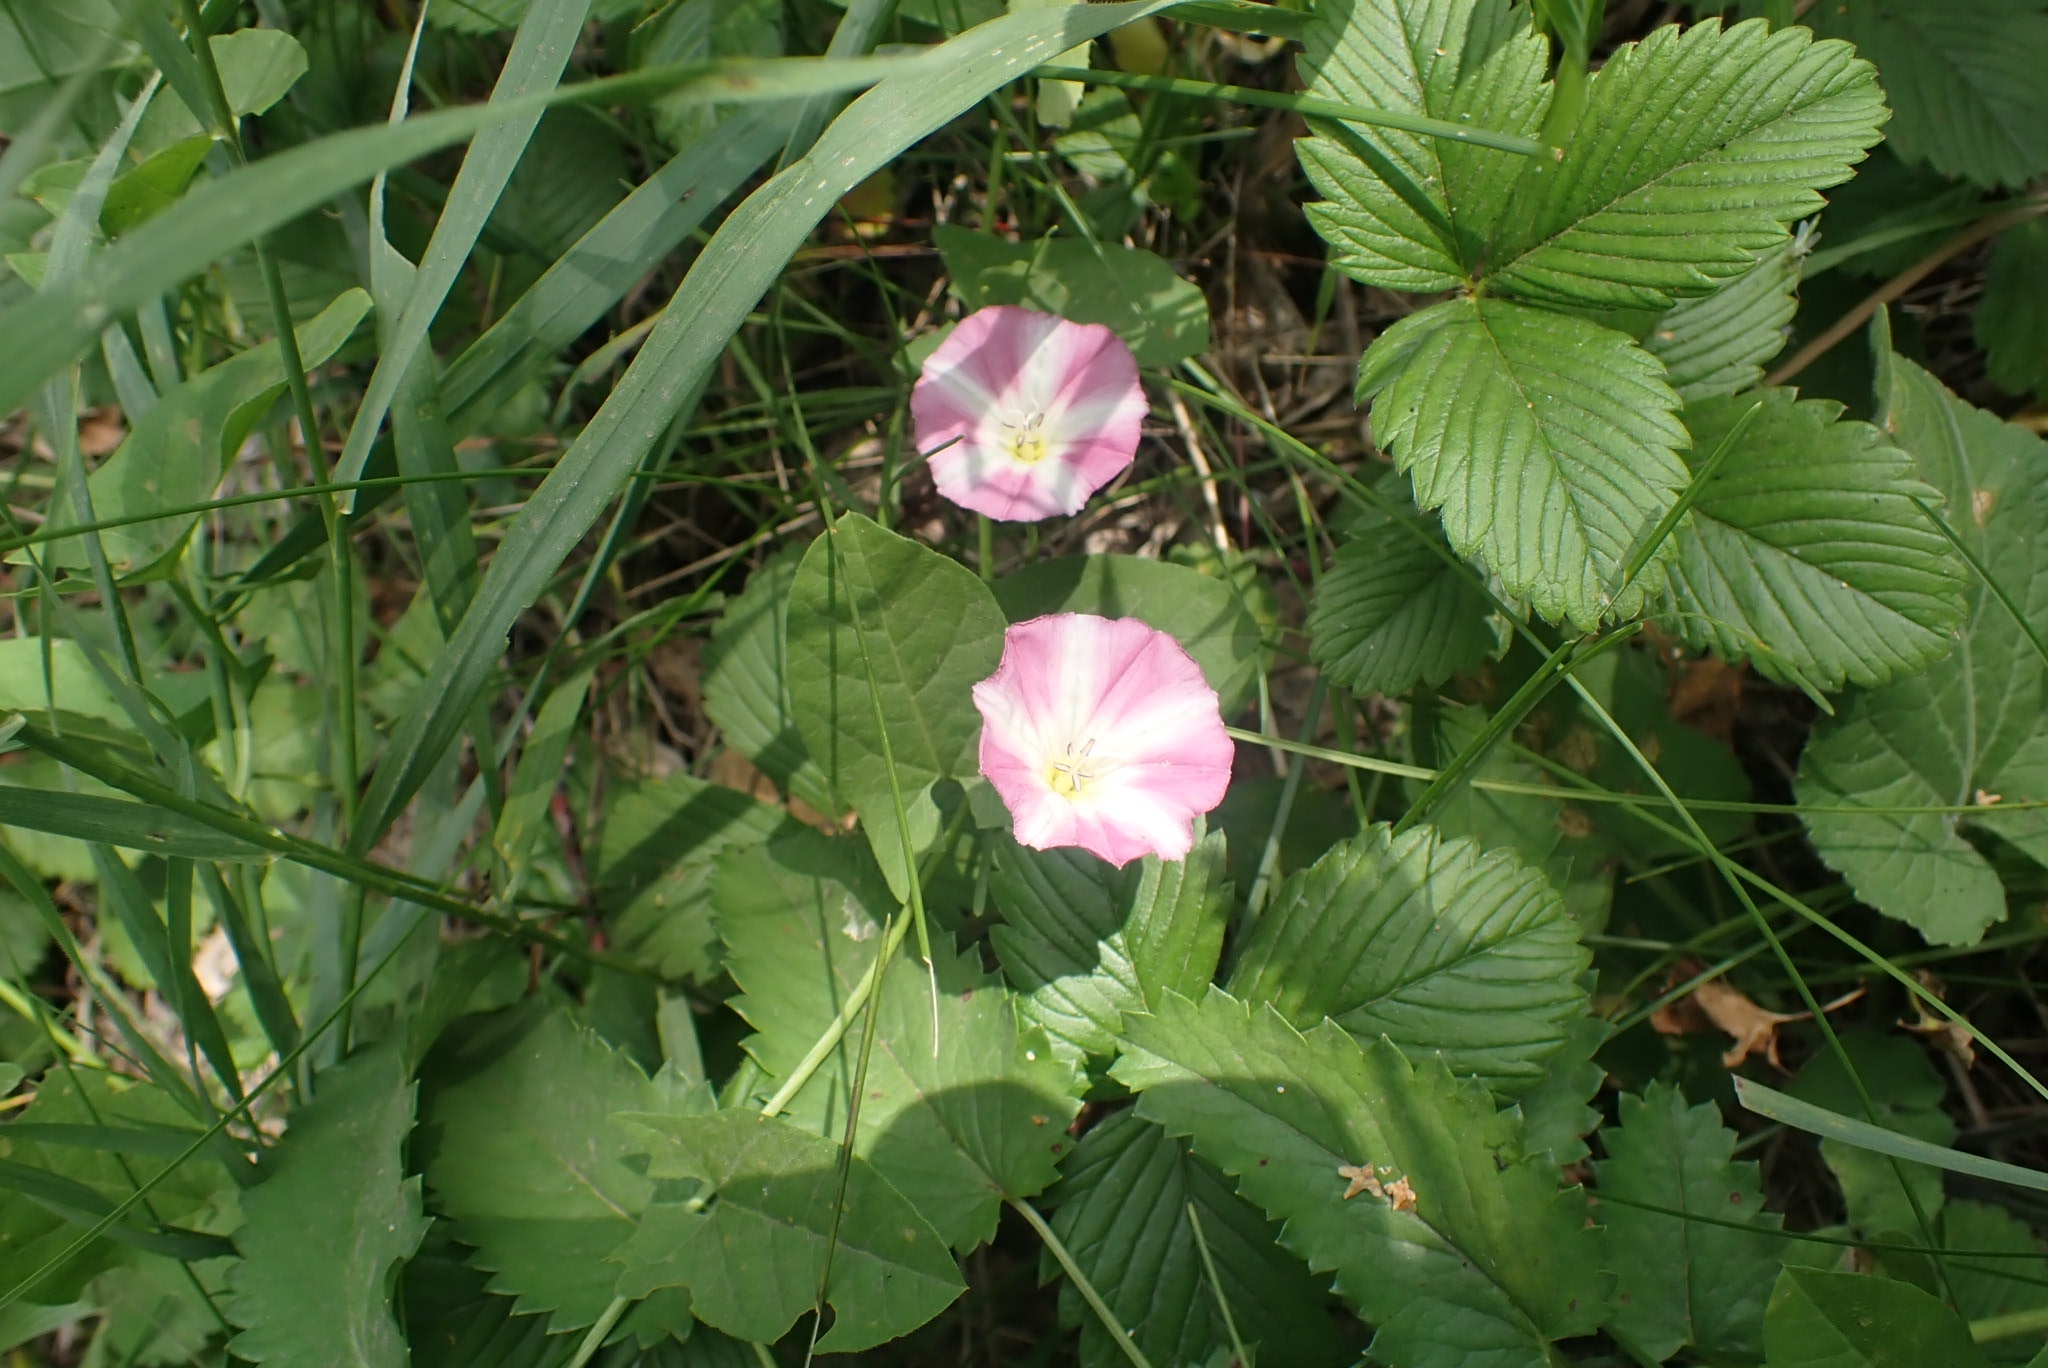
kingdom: Plantae
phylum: Tracheophyta
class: Magnoliopsida
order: Solanales
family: Convolvulaceae
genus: Convolvulus
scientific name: Convolvulus arvensis
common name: Field bindweed
